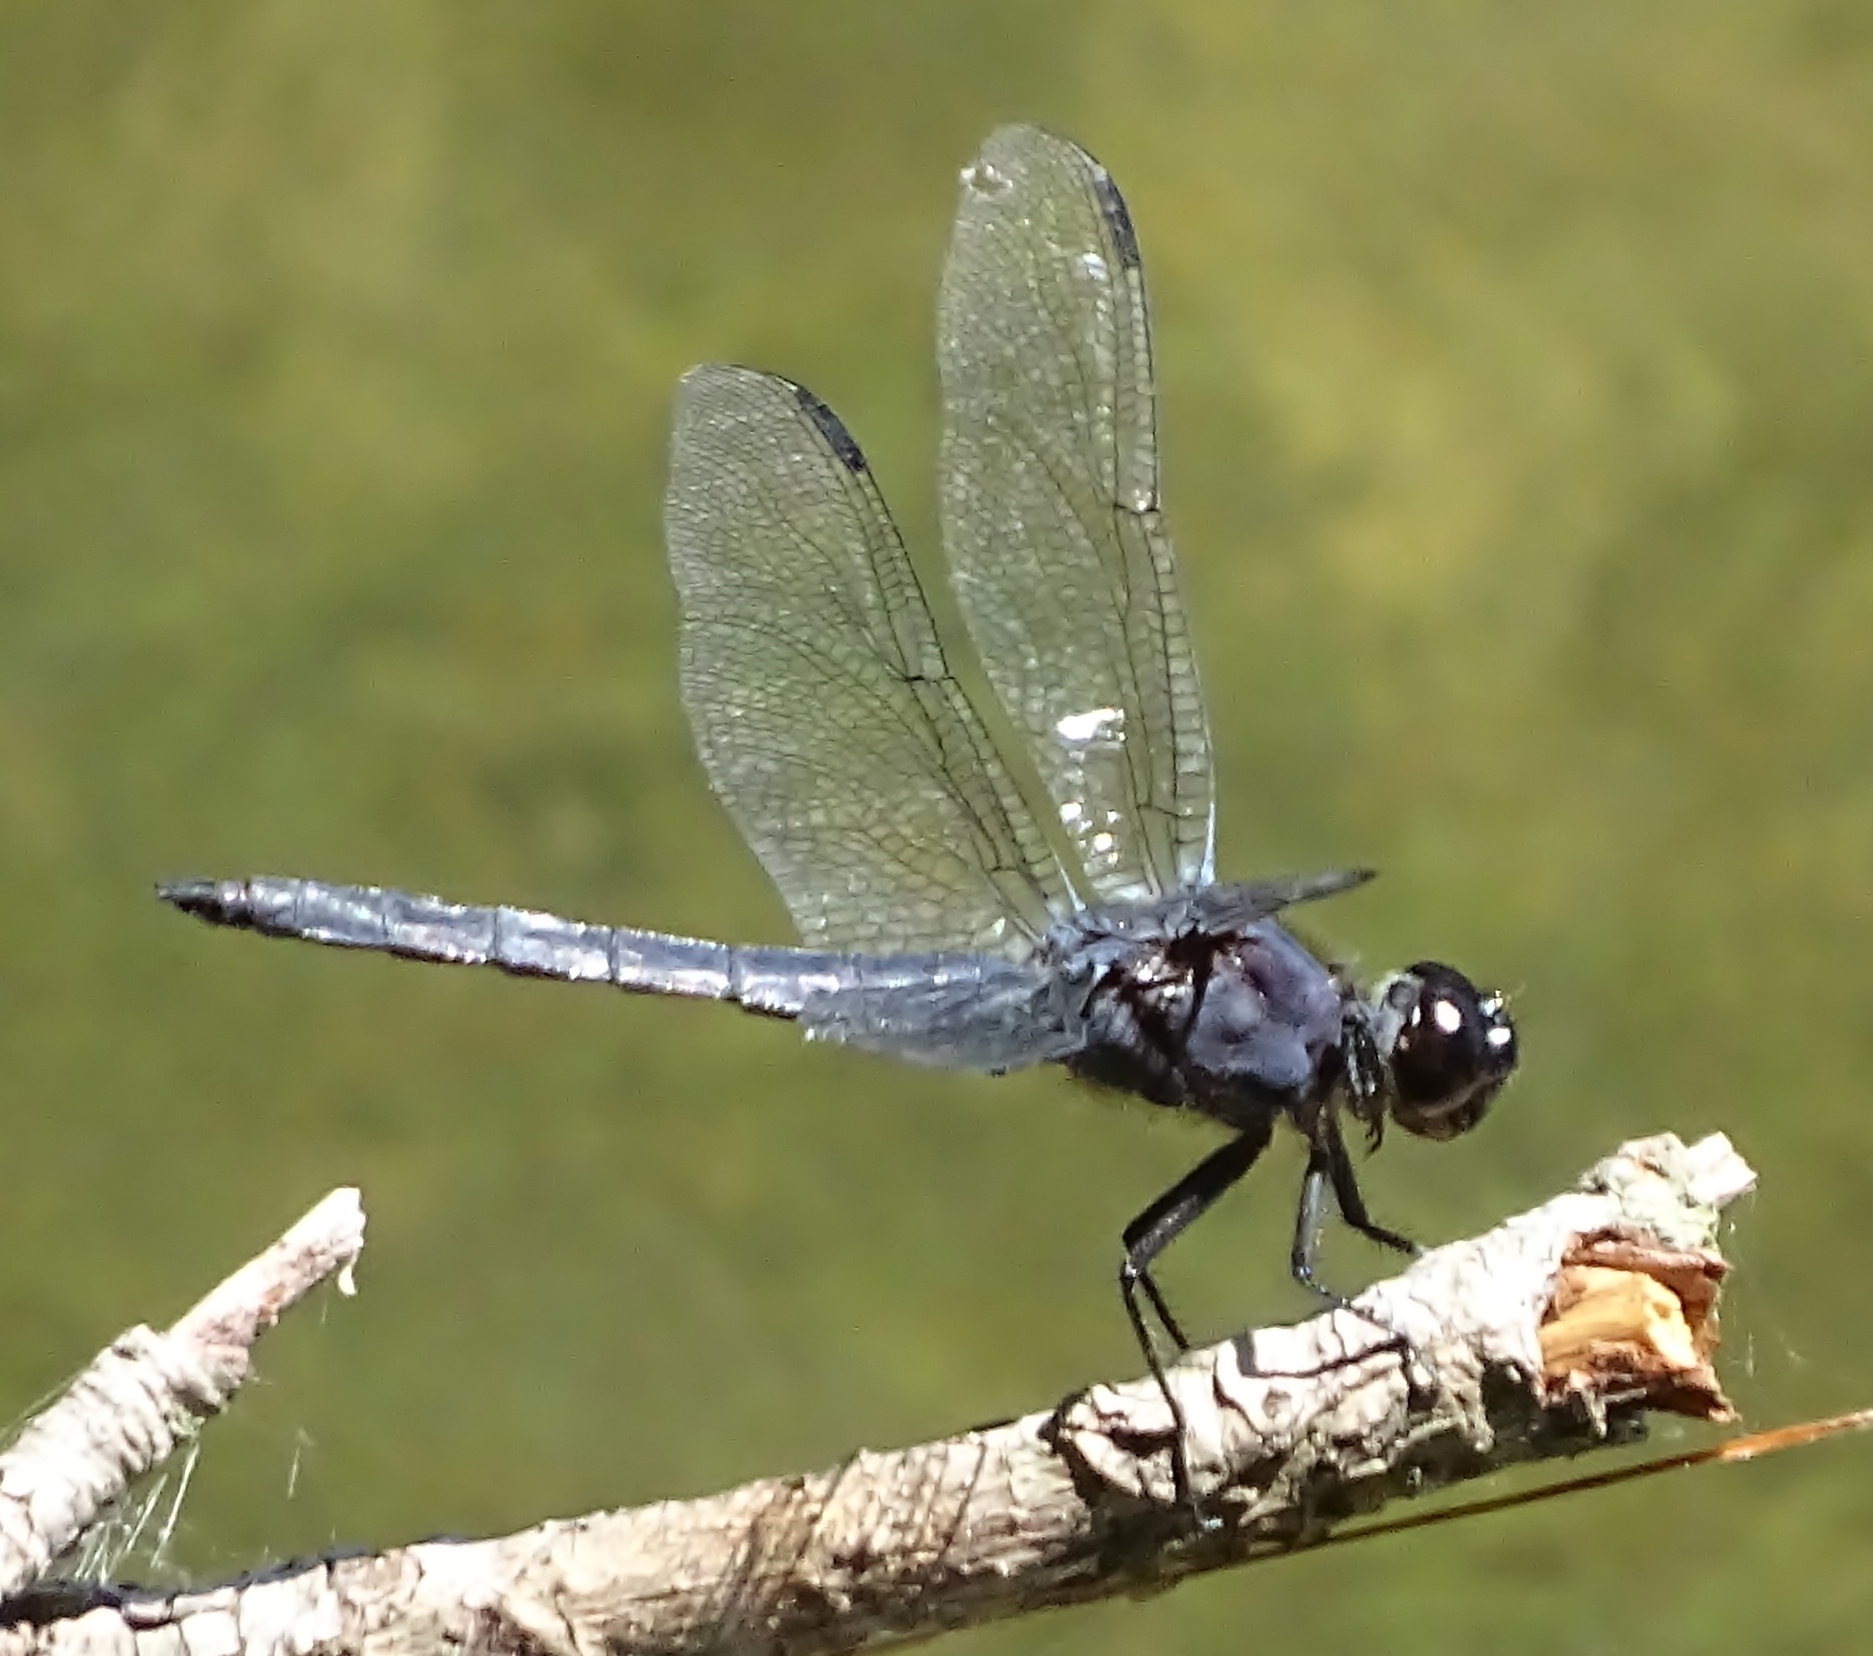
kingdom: Animalia
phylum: Arthropoda
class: Insecta
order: Odonata
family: Libellulidae
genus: Libellula
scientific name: Libellula incesta
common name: Slaty skimmer
